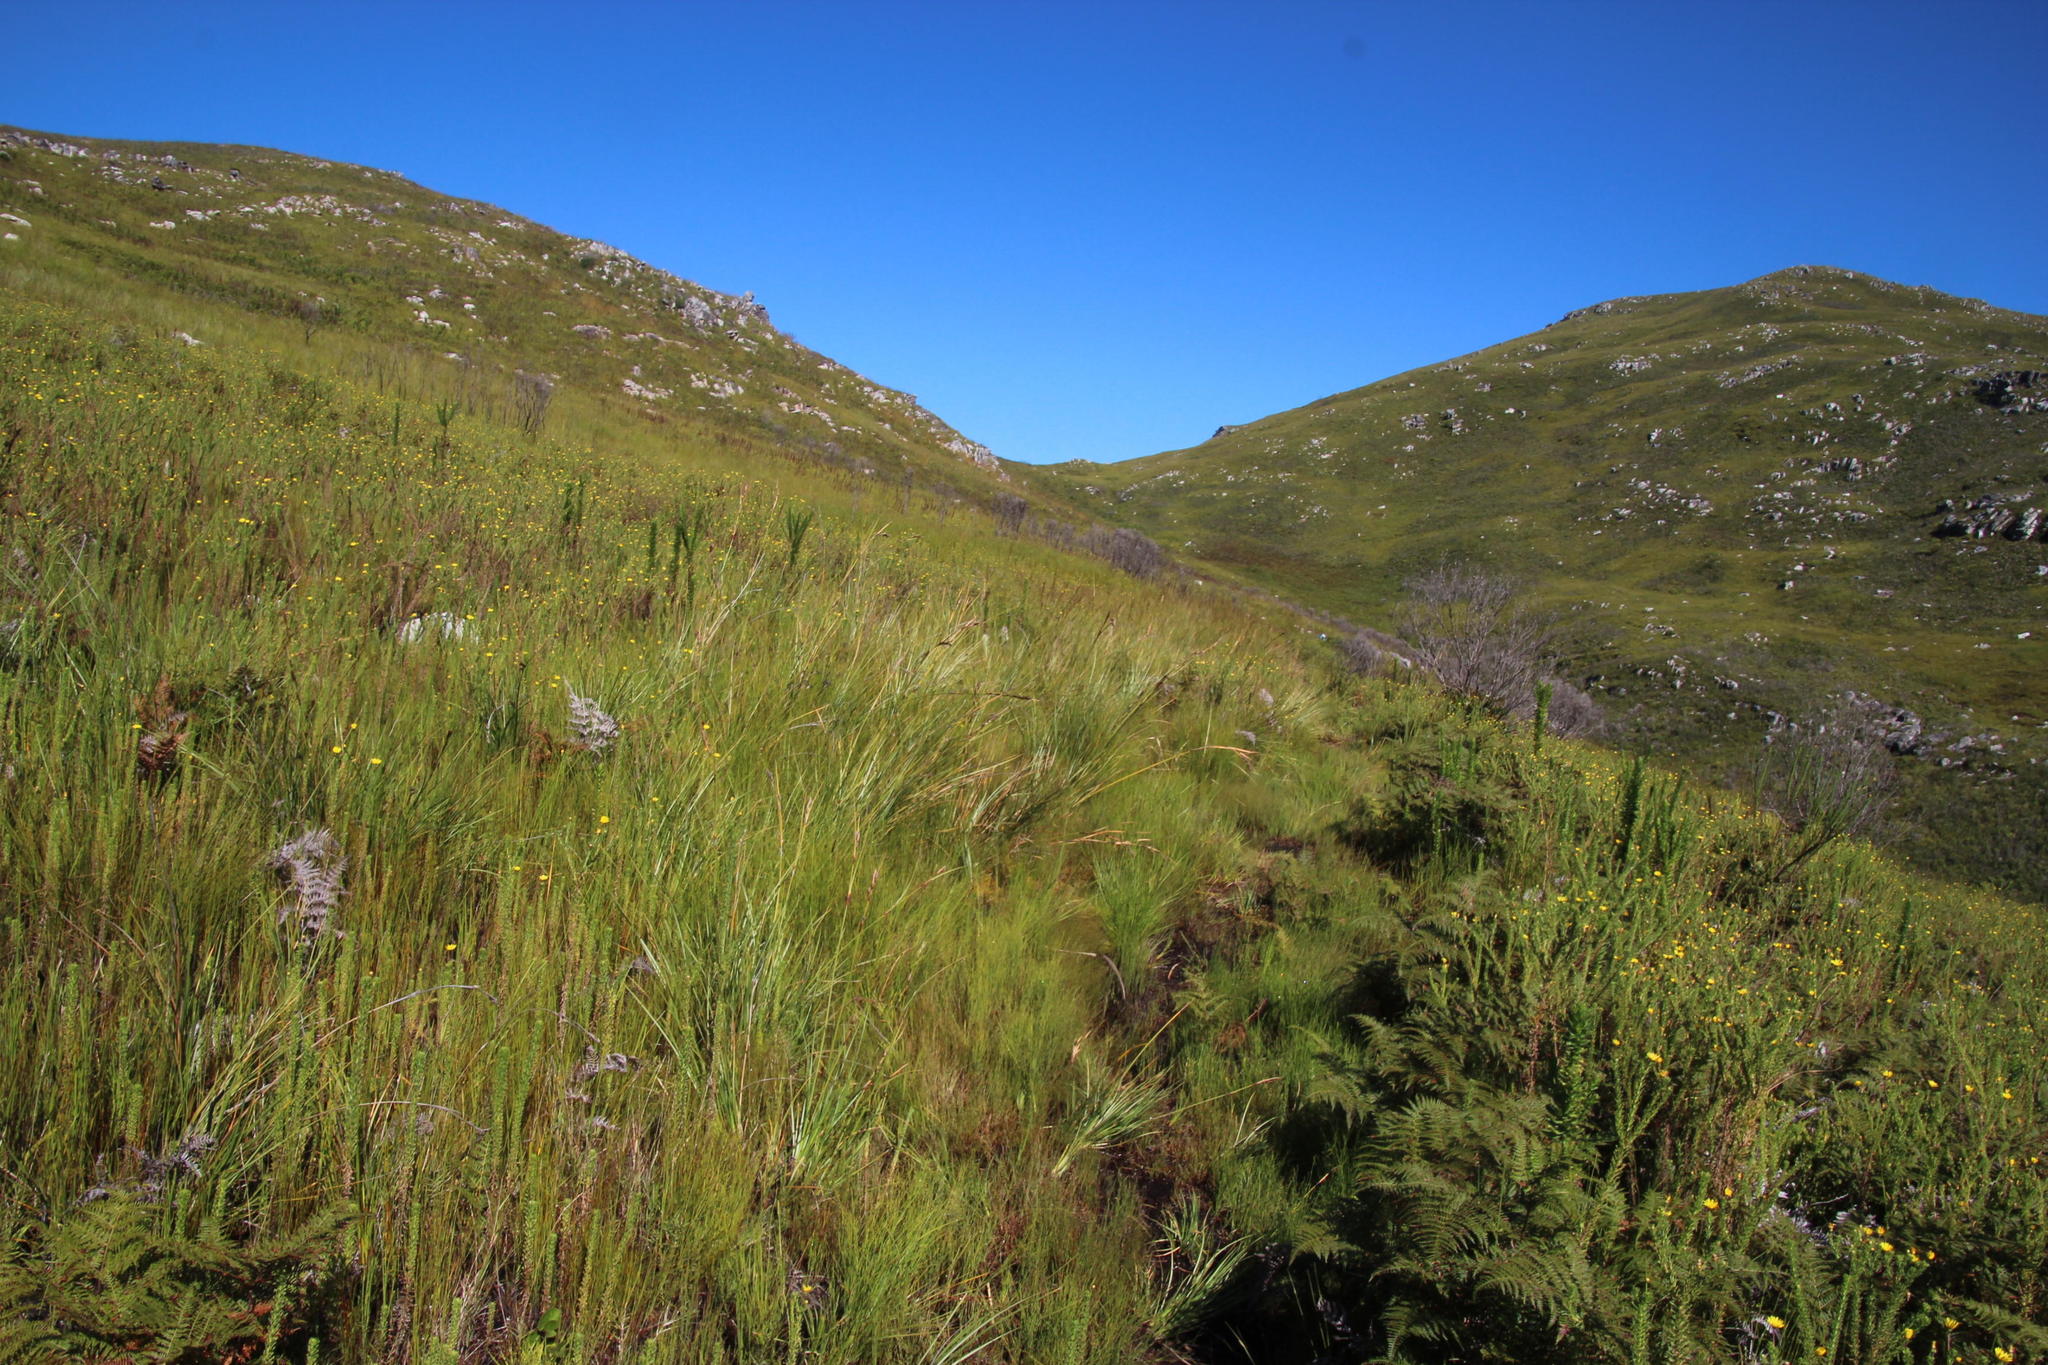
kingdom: Plantae
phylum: Tracheophyta
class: Liliopsida
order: Poales
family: Cyperaceae
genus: Cyathocoma
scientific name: Cyathocoma hexandra
